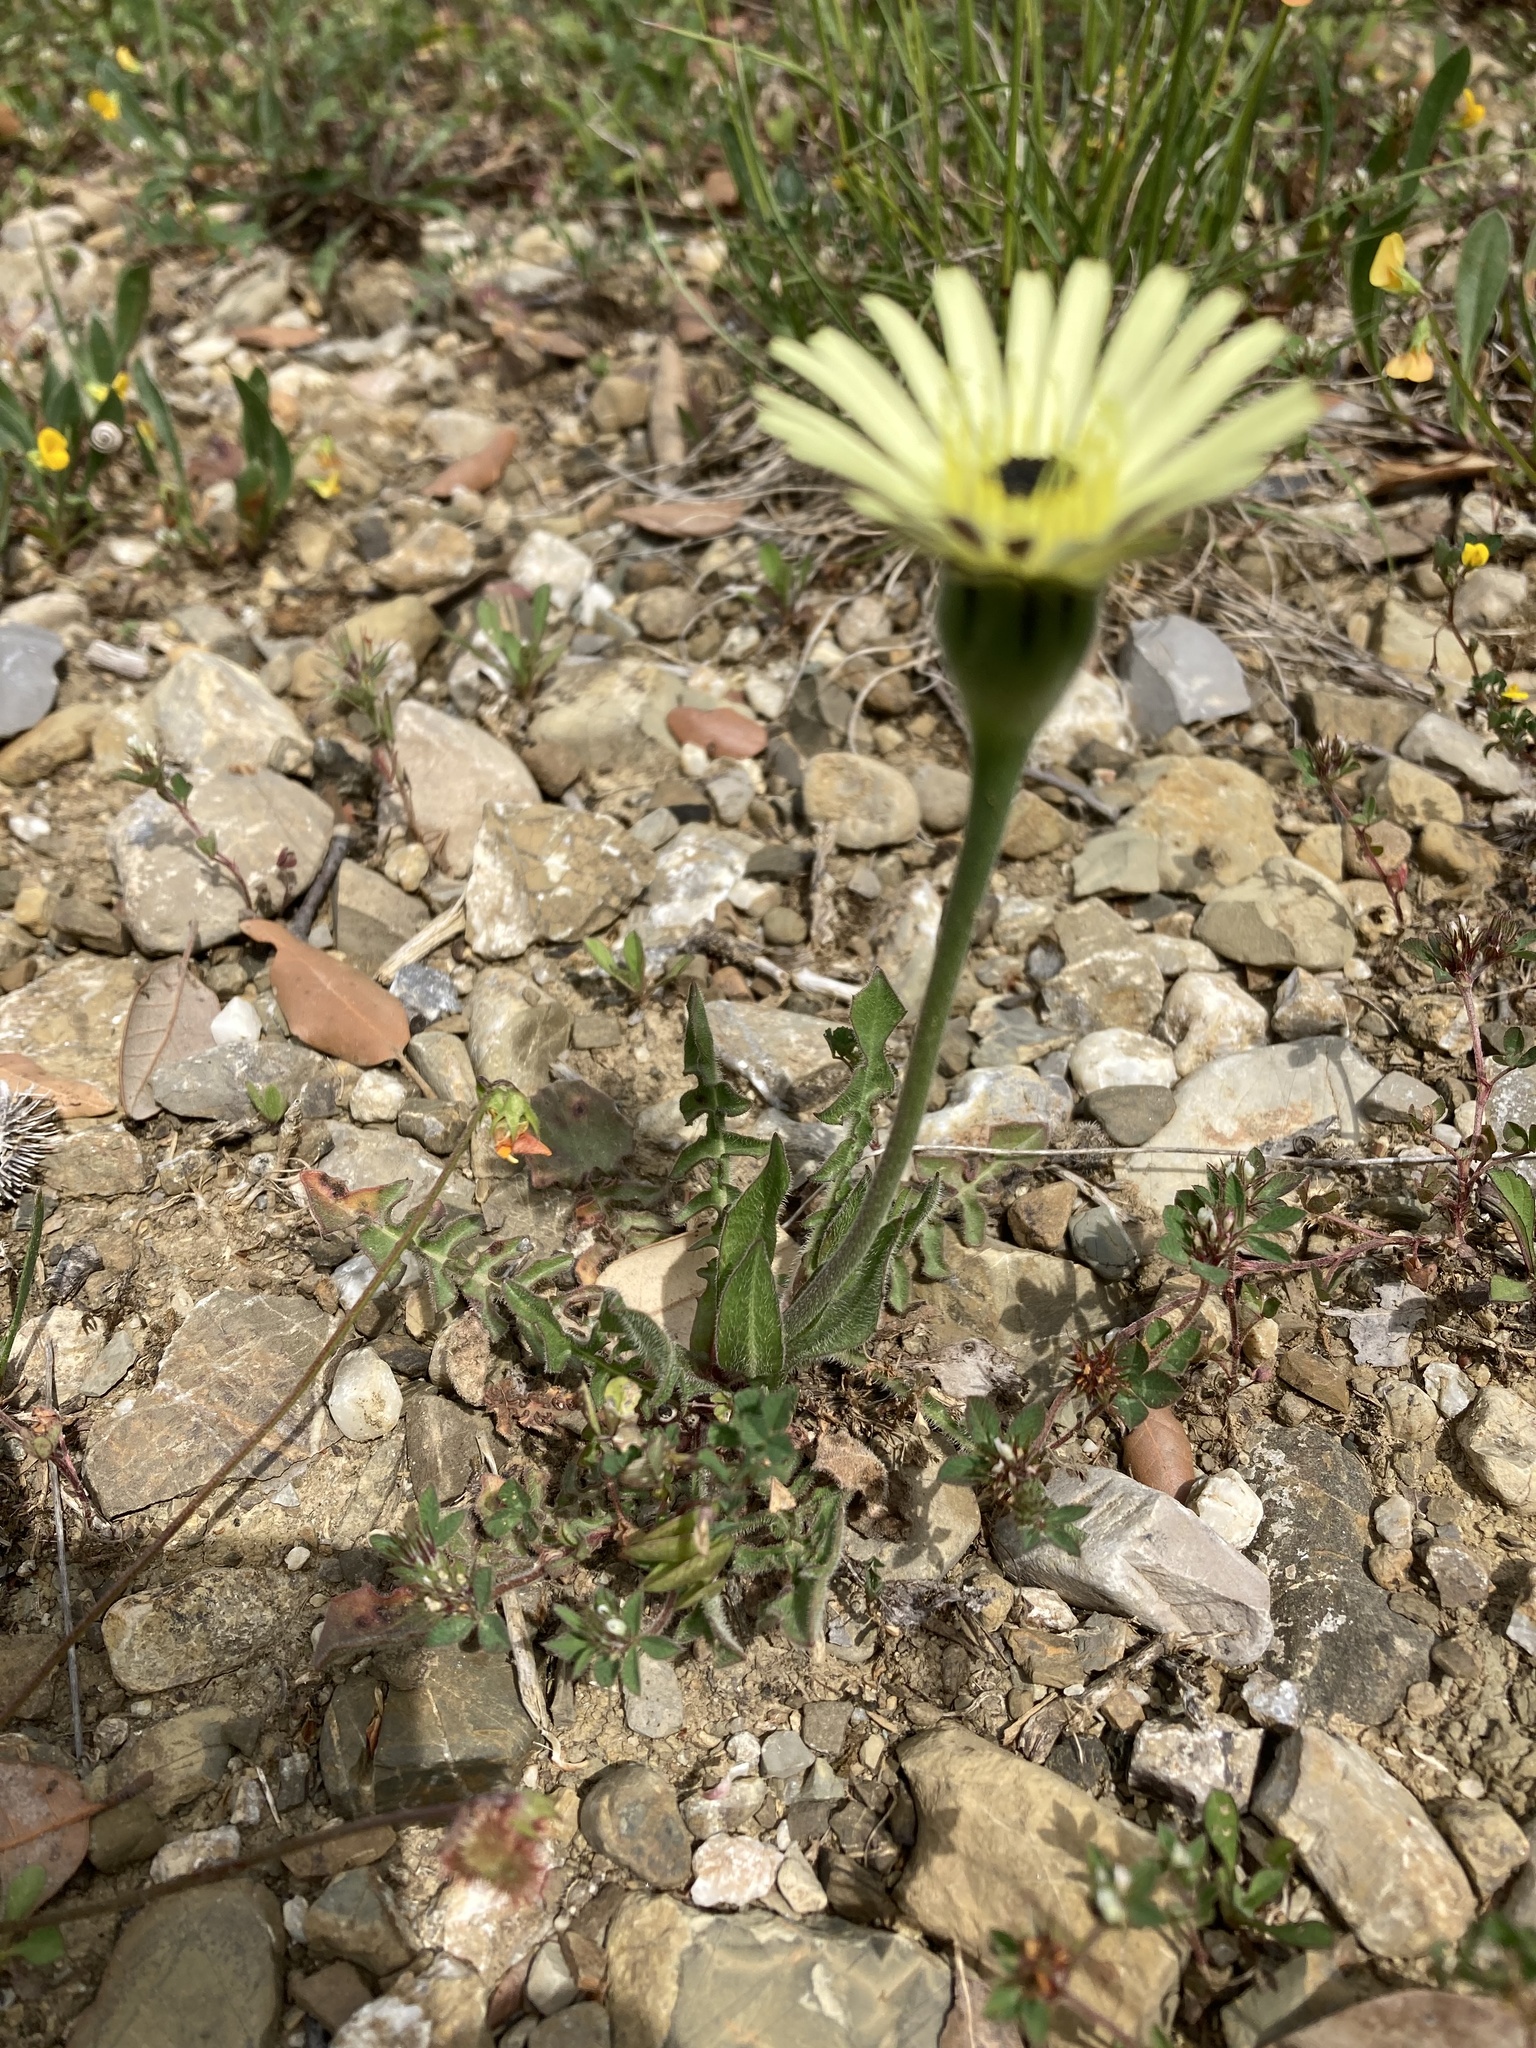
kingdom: Plantae
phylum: Tracheophyta
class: Magnoliopsida
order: Asterales
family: Asteraceae
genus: Urospermum
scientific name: Urospermum dalechampii
